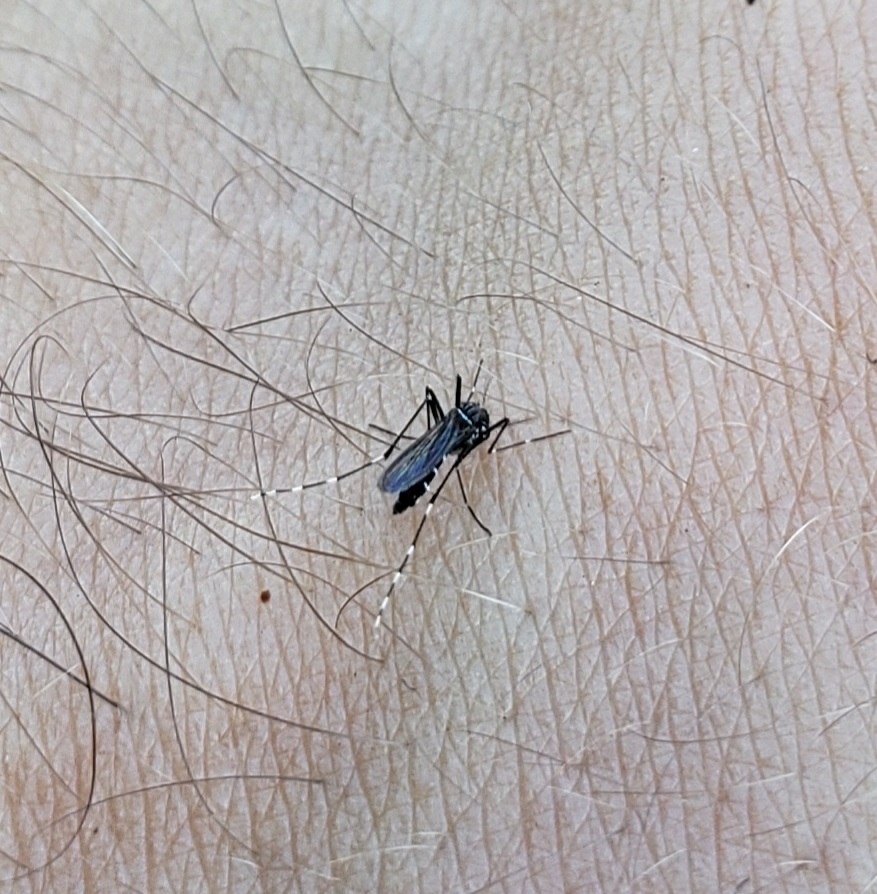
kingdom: Animalia
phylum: Arthropoda
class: Insecta
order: Diptera
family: Culicidae
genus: Aedes
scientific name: Aedes albopictus
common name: Tiger mosquito
